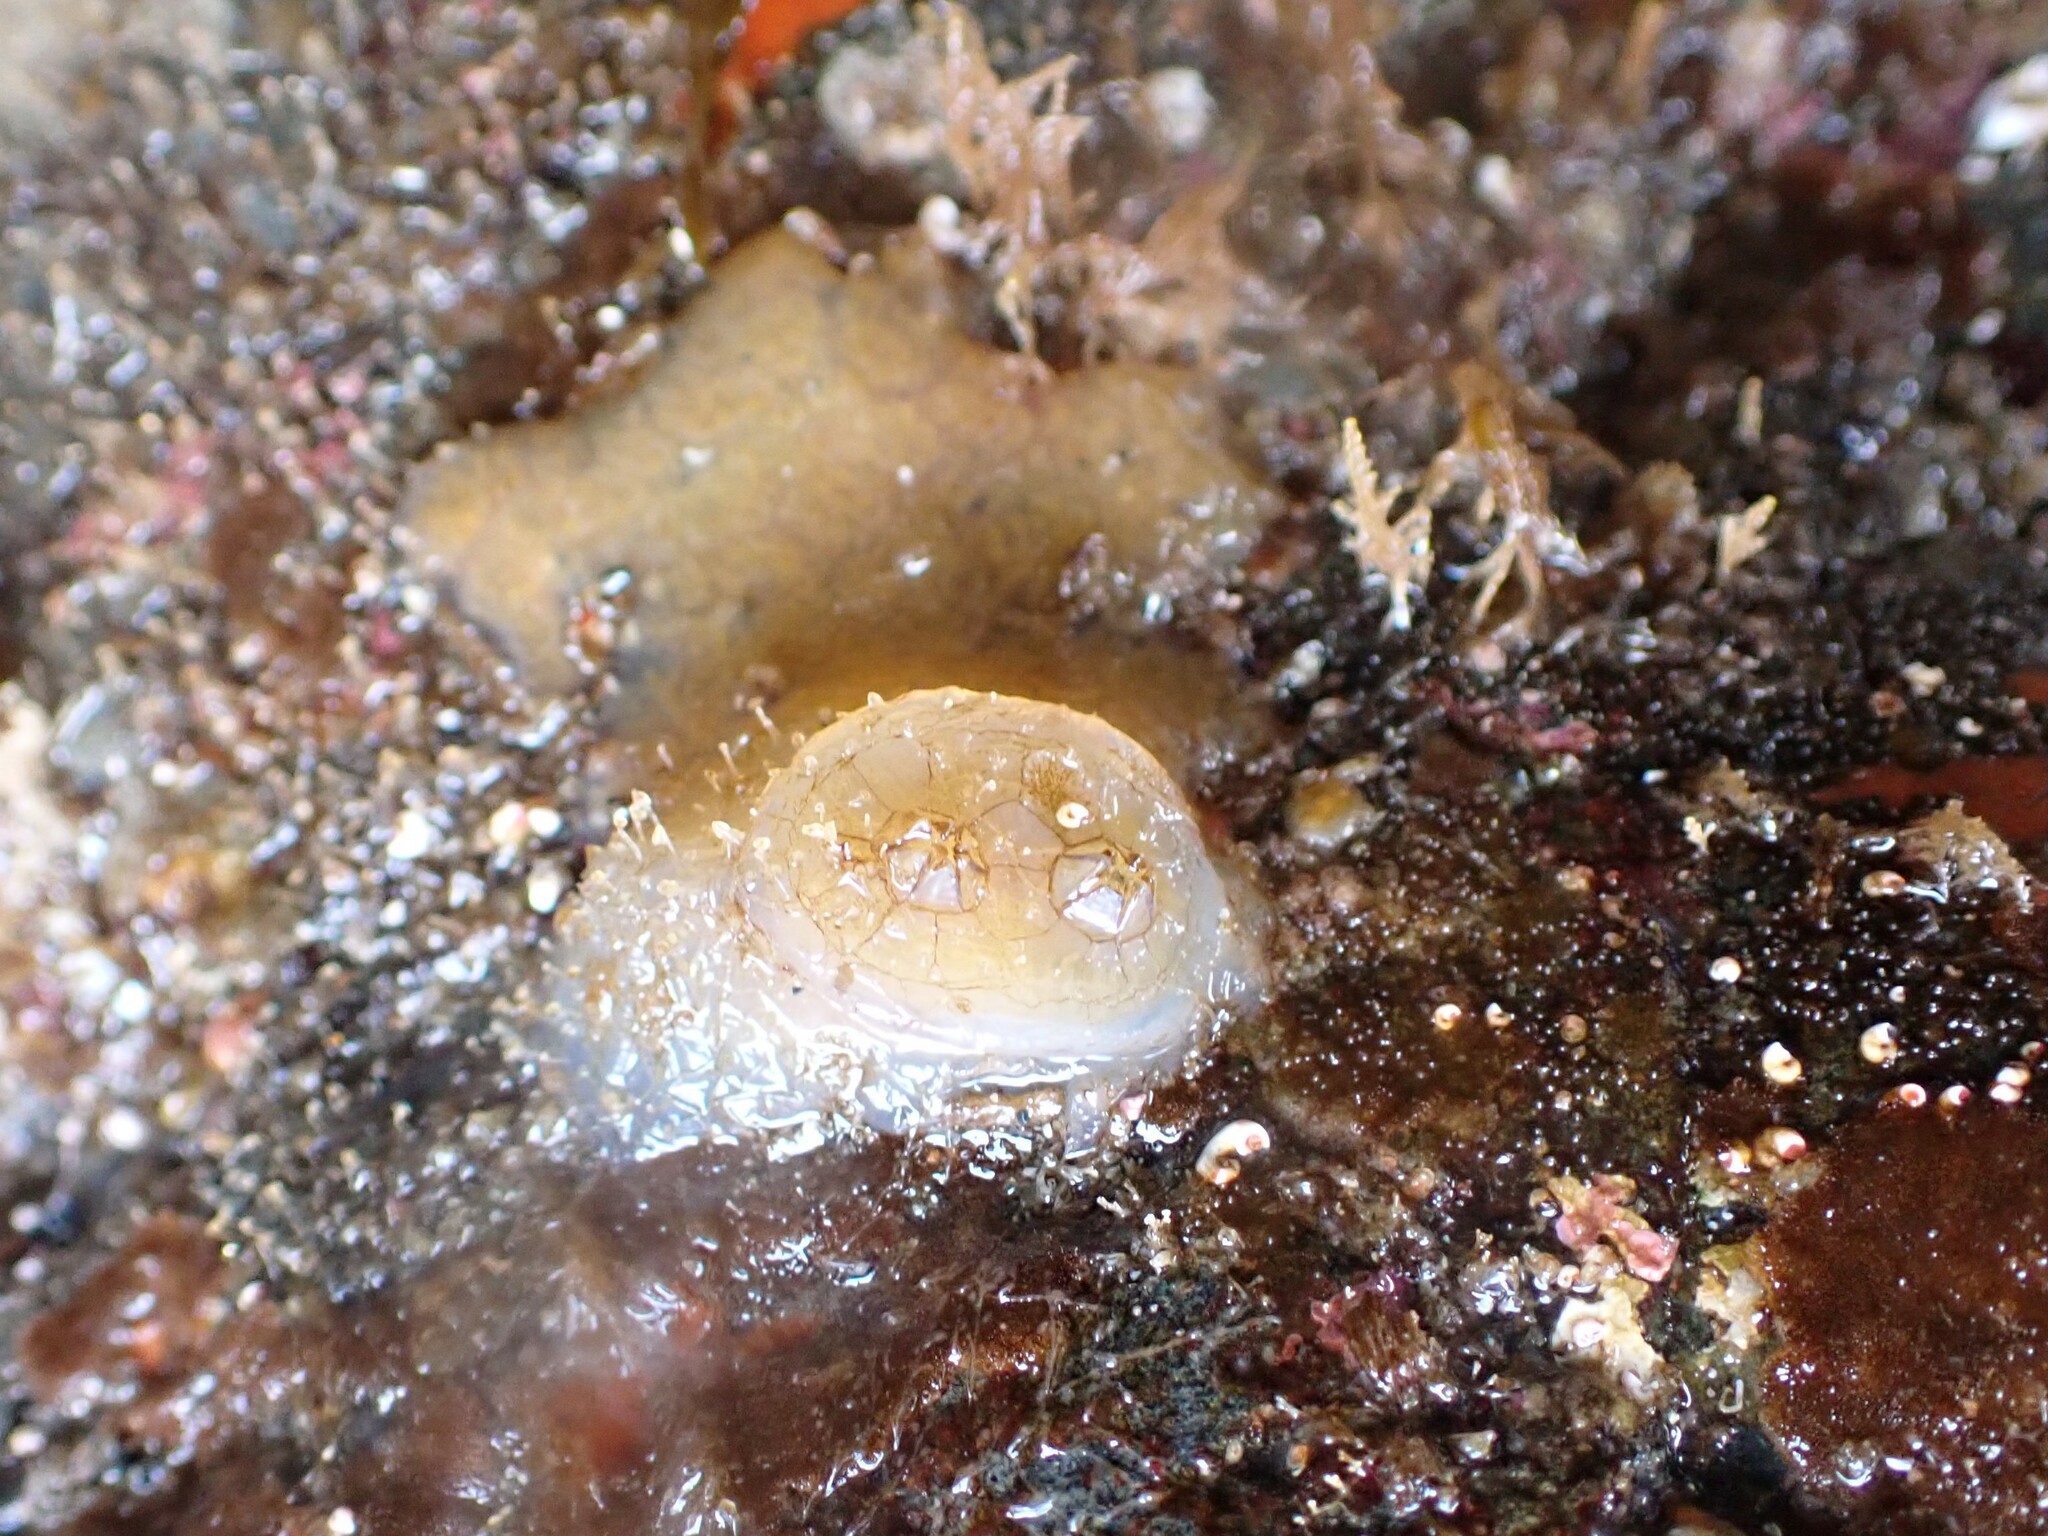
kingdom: Animalia
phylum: Chordata
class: Ascidiacea
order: Phlebobranchia
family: Corellidae
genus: Chelyosoma
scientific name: Chelyosoma productum
